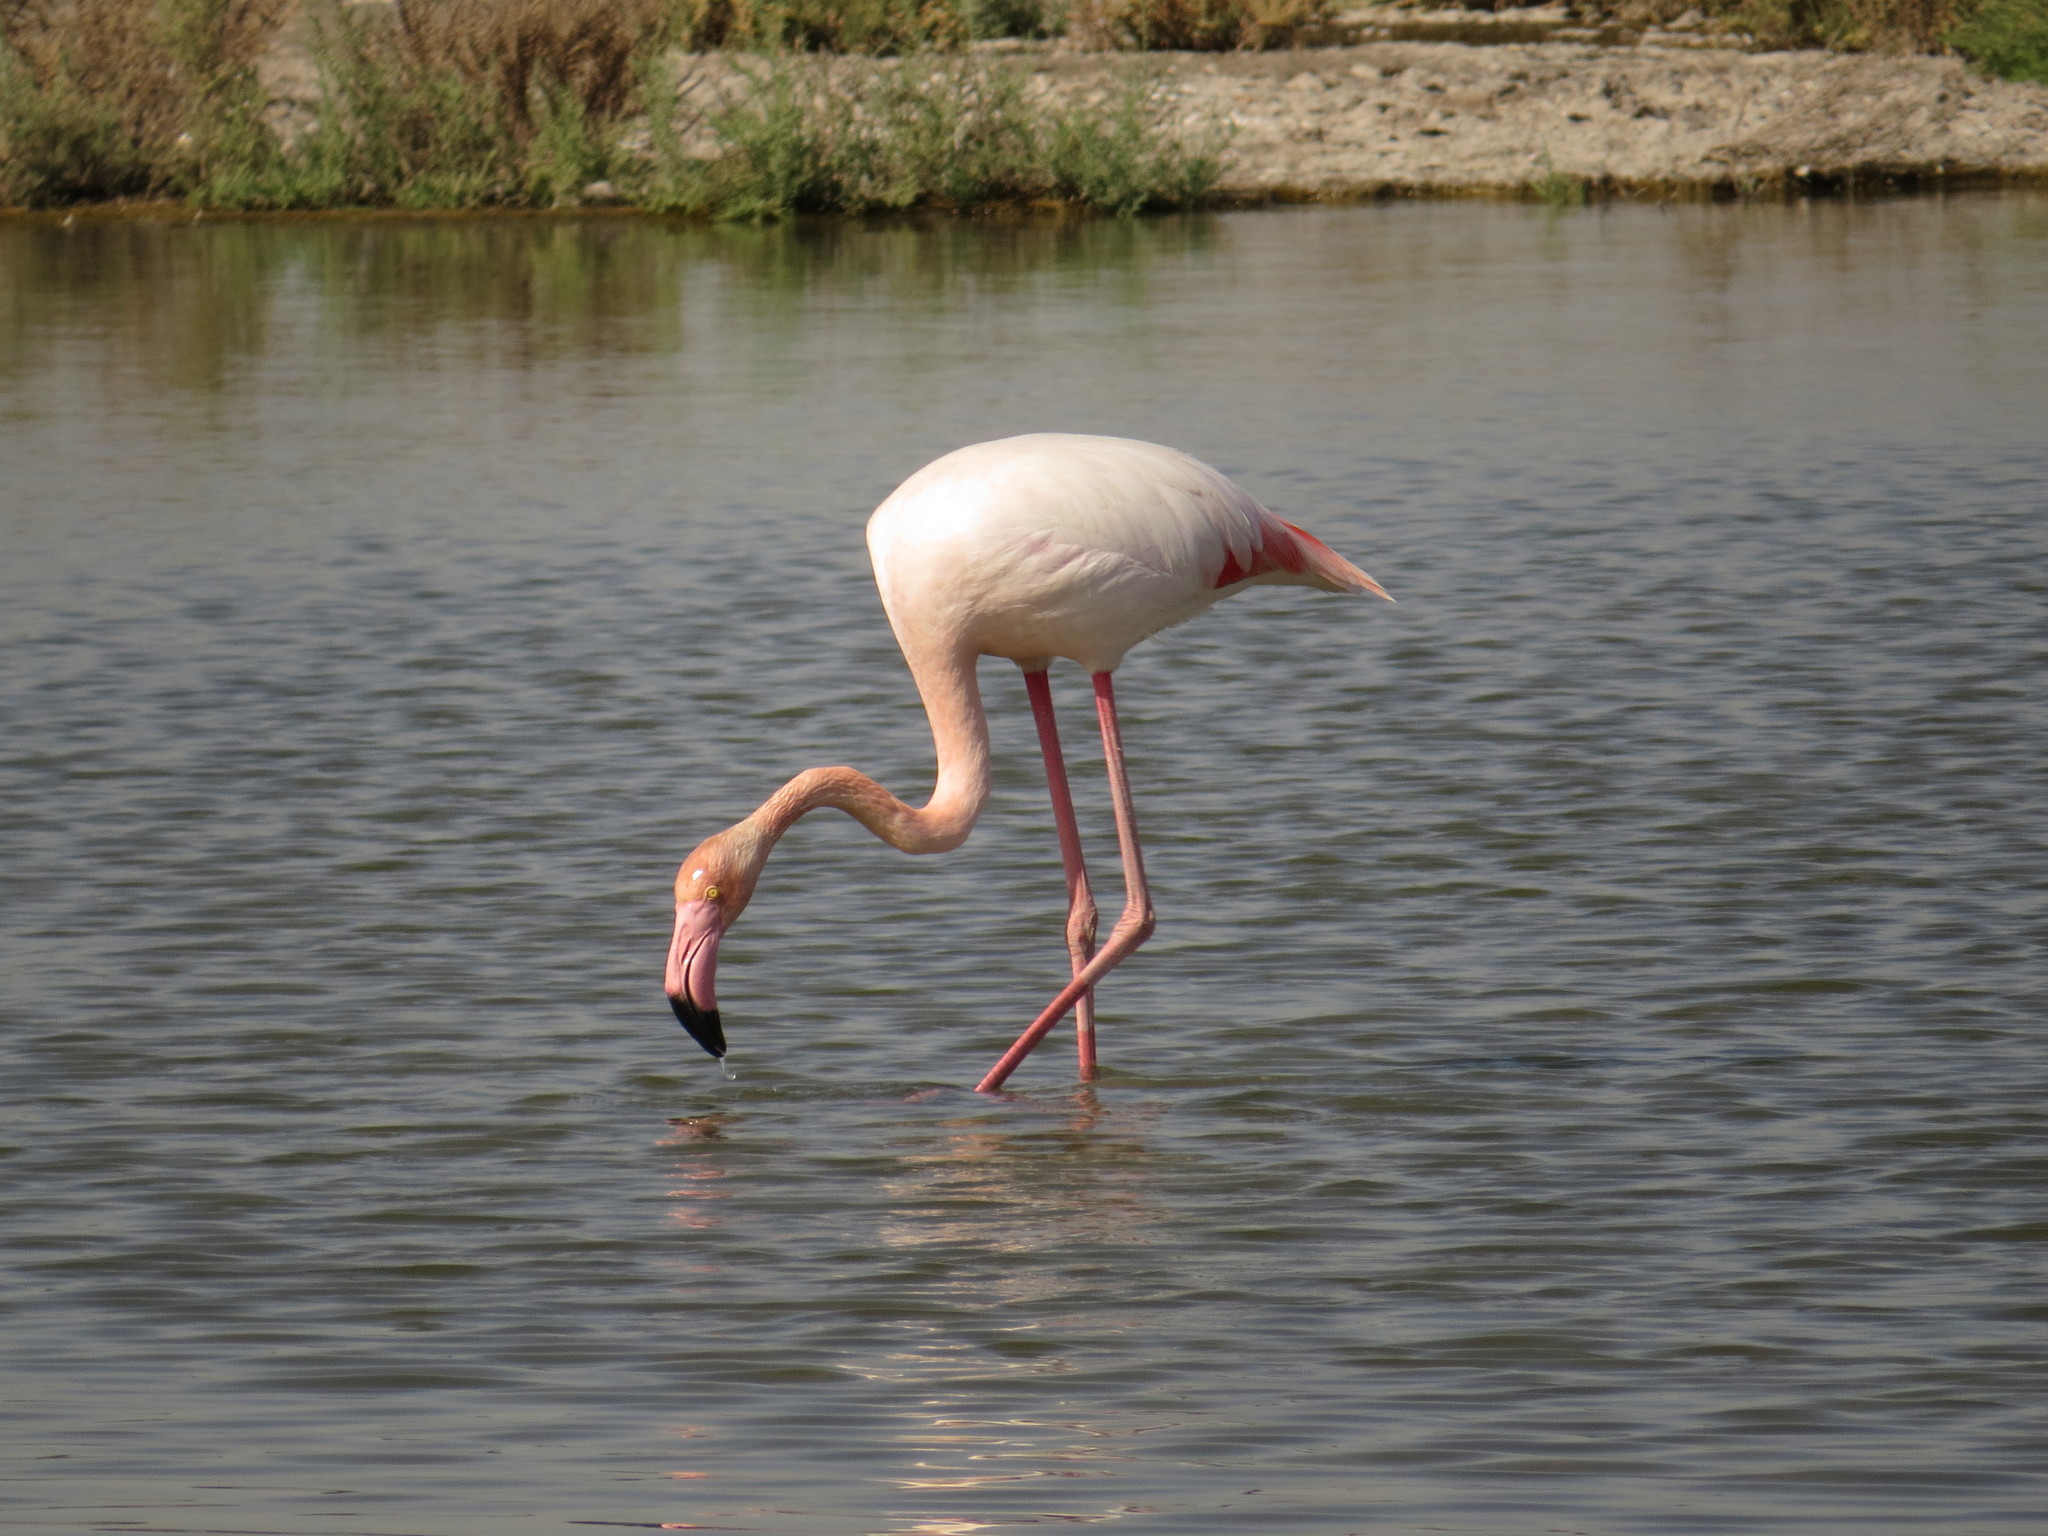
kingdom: Animalia
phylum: Chordata
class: Aves
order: Phoenicopteriformes
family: Phoenicopteridae
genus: Phoenicopterus
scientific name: Phoenicopterus roseus
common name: Greater flamingo
